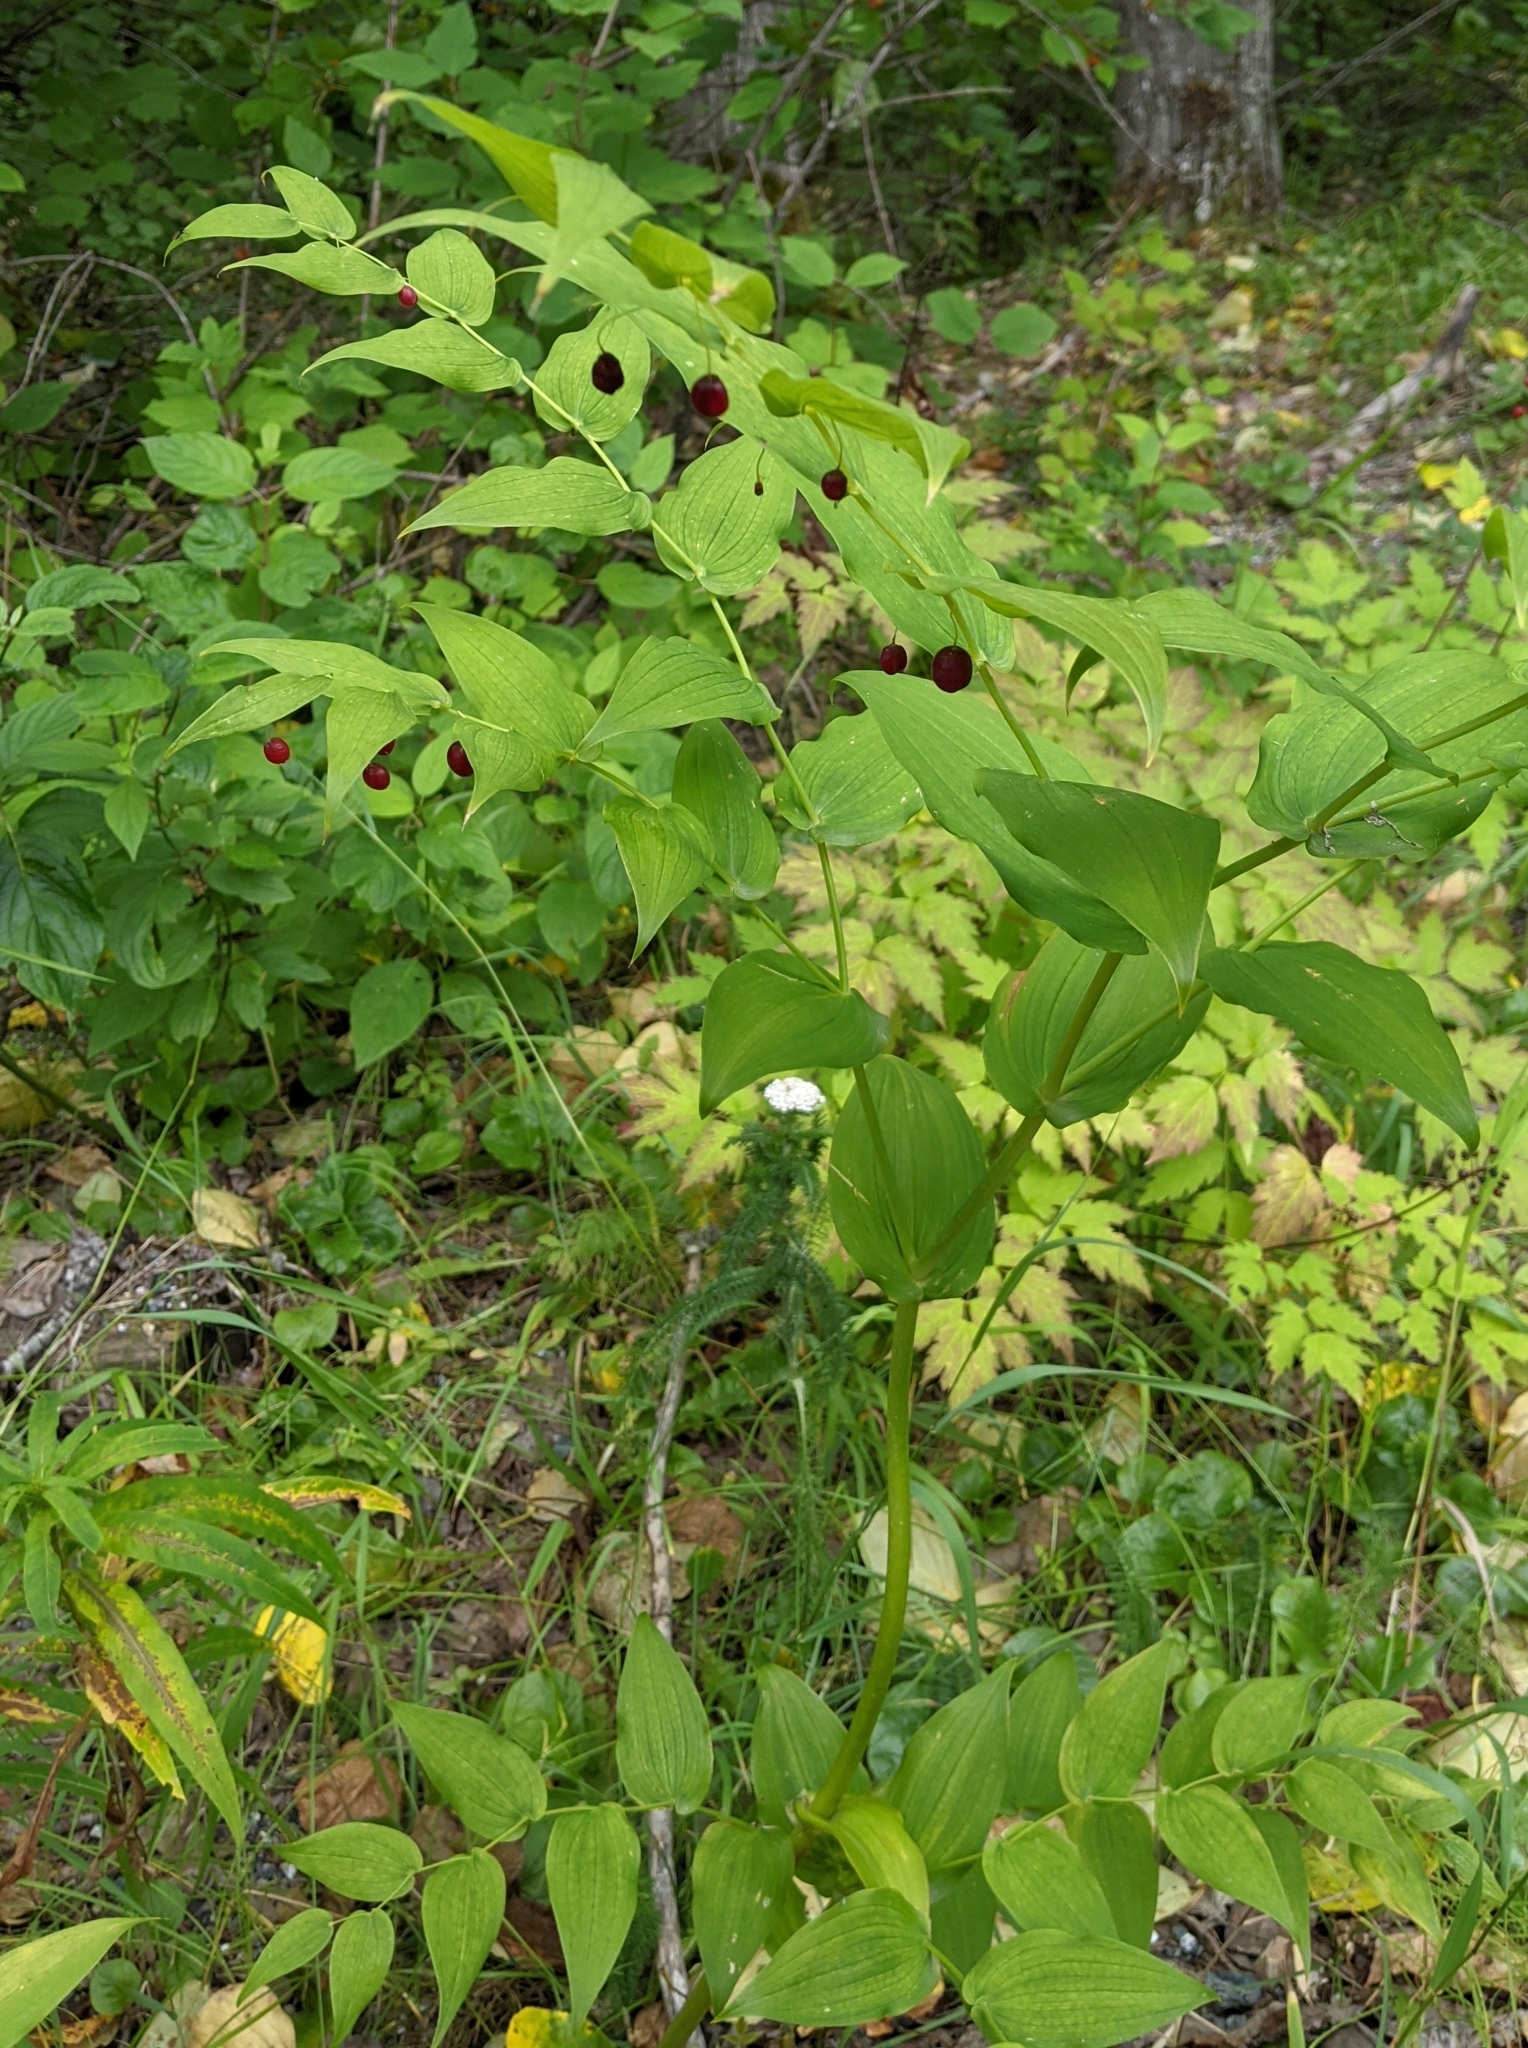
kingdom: Plantae
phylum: Tracheophyta
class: Liliopsida
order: Liliales
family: Liliaceae
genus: Streptopus
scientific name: Streptopus amplexifolius
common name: Clasp twisted stalk
